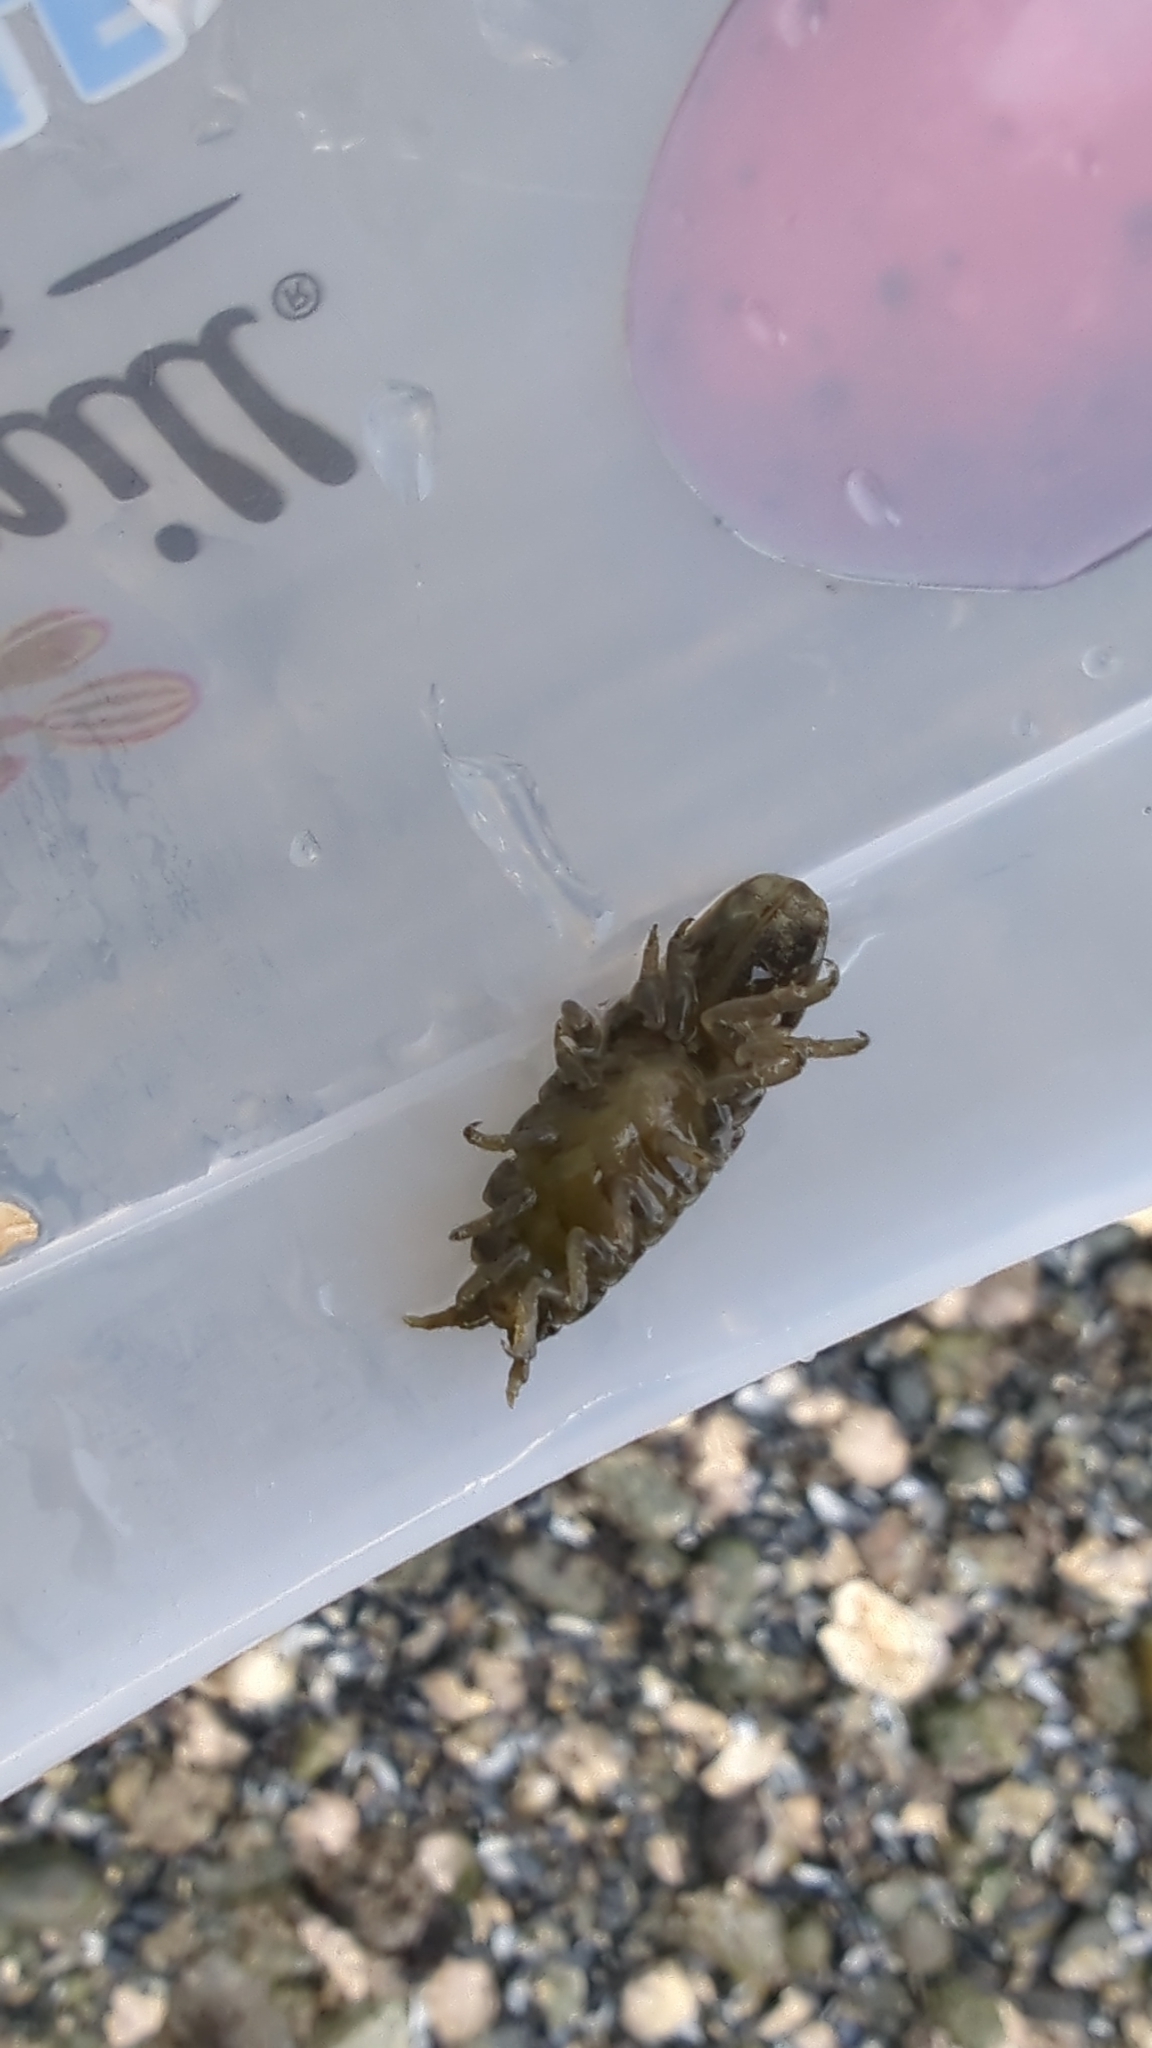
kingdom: Animalia
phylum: Arthropoda
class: Malacostraca
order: Isopoda
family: Idoteidae
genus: Pentidotea
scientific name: Pentidotea wosnesenskii
